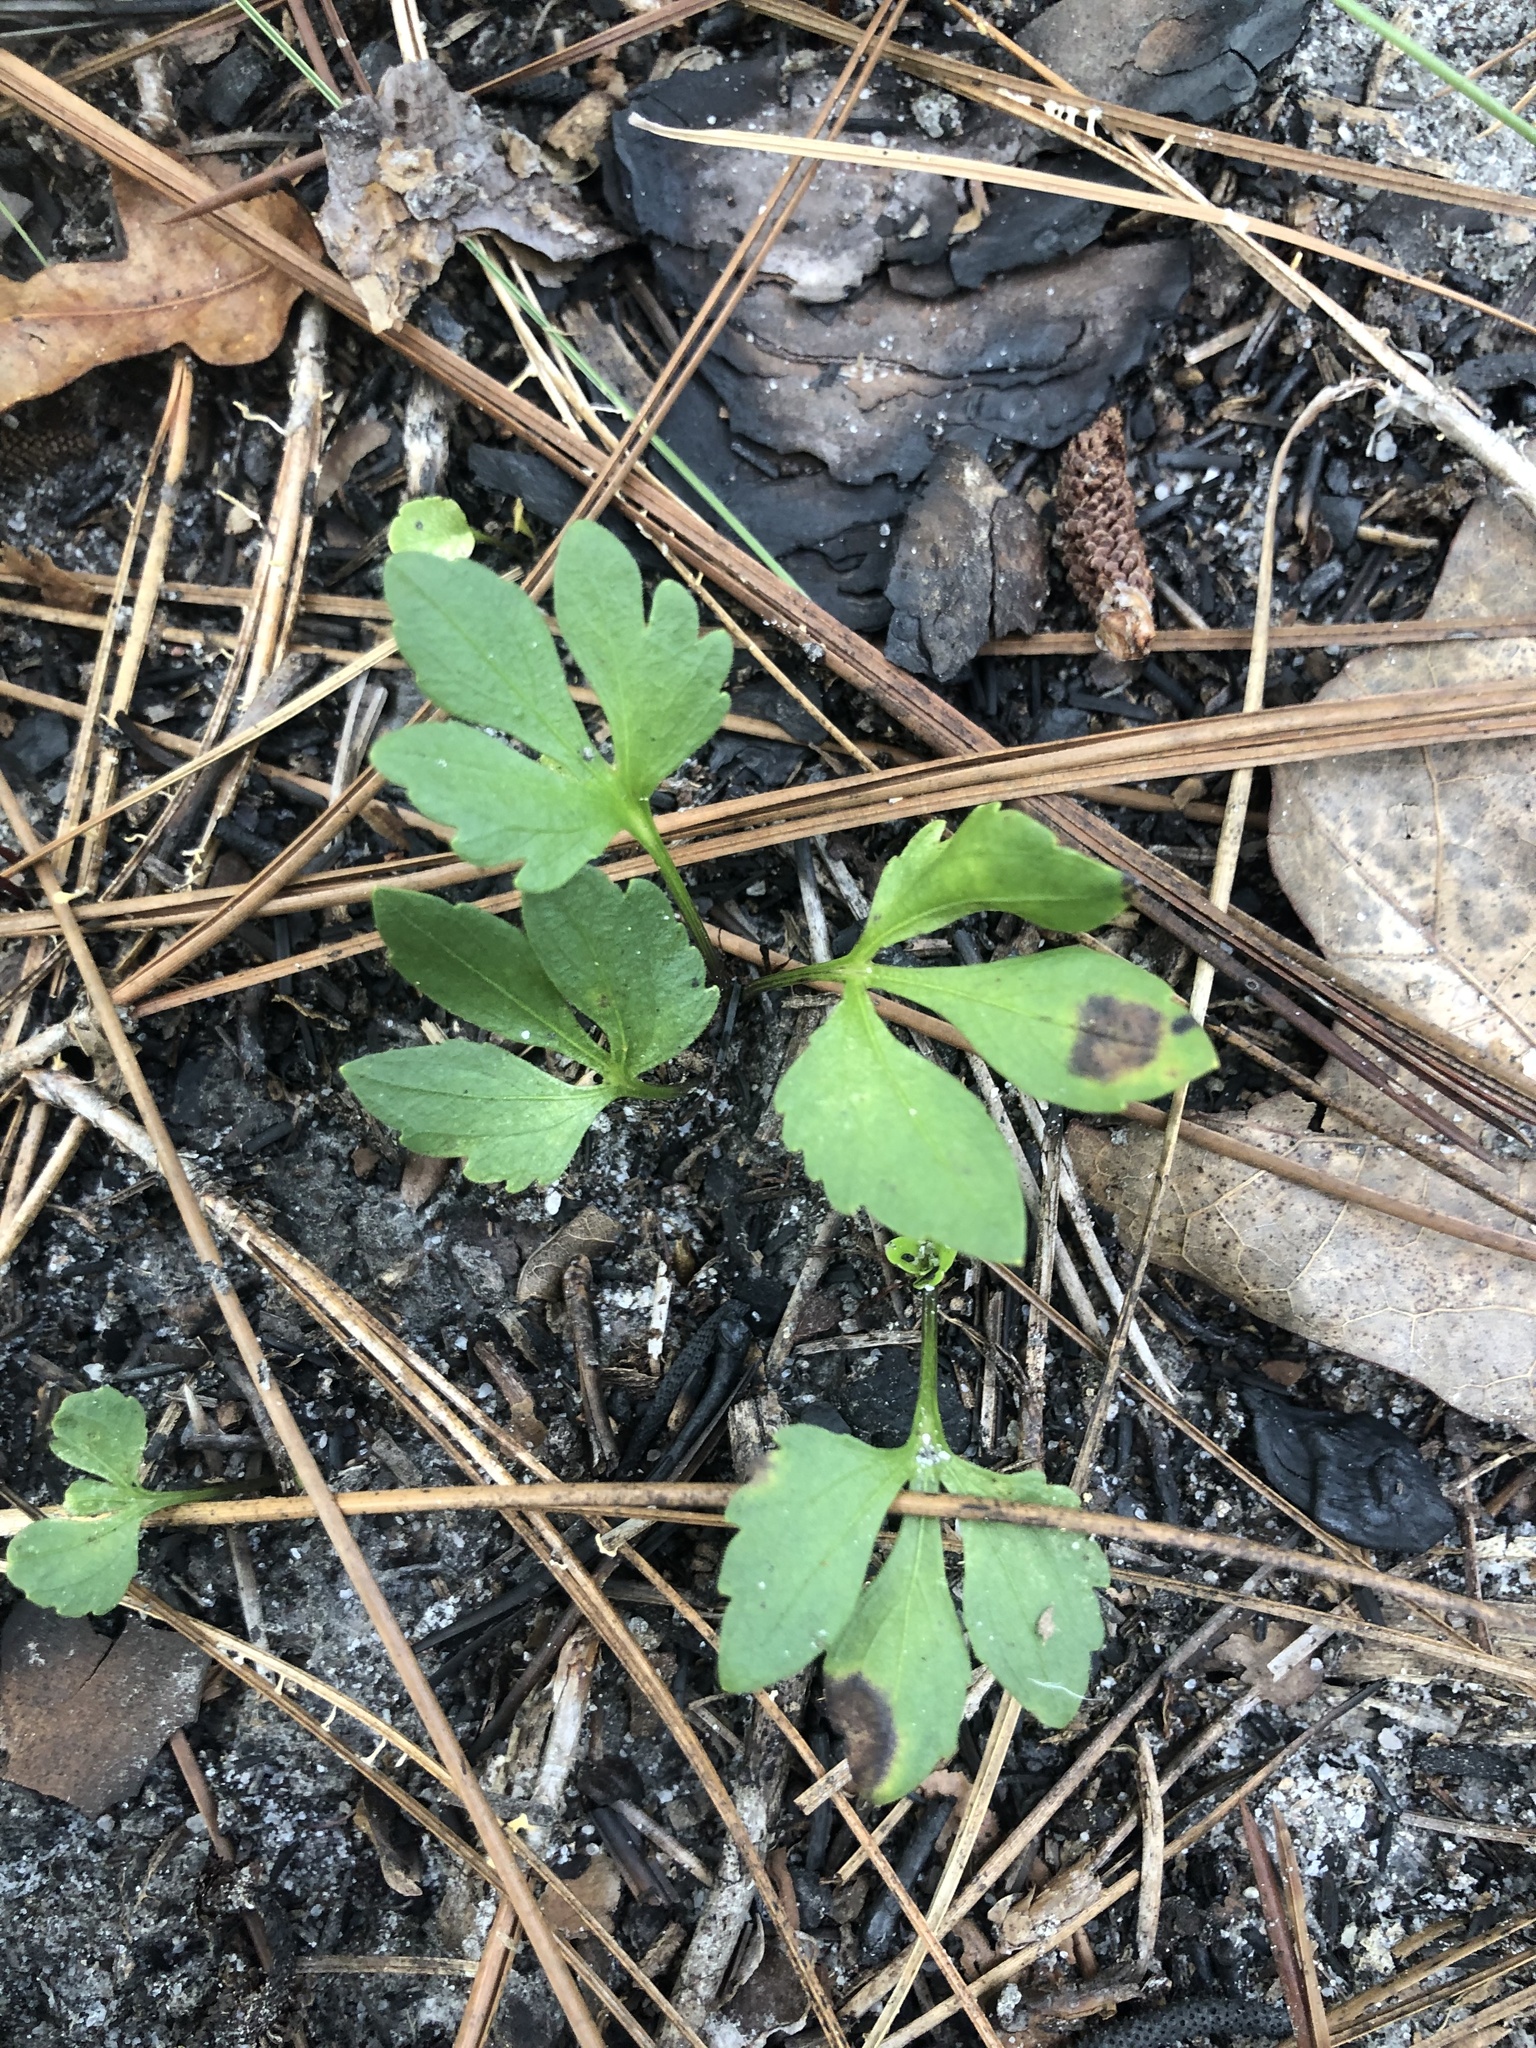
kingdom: Plantae
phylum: Tracheophyta
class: Magnoliopsida
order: Malpighiales
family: Violaceae
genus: Viola
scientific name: Viola pedata
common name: Pansy violet
